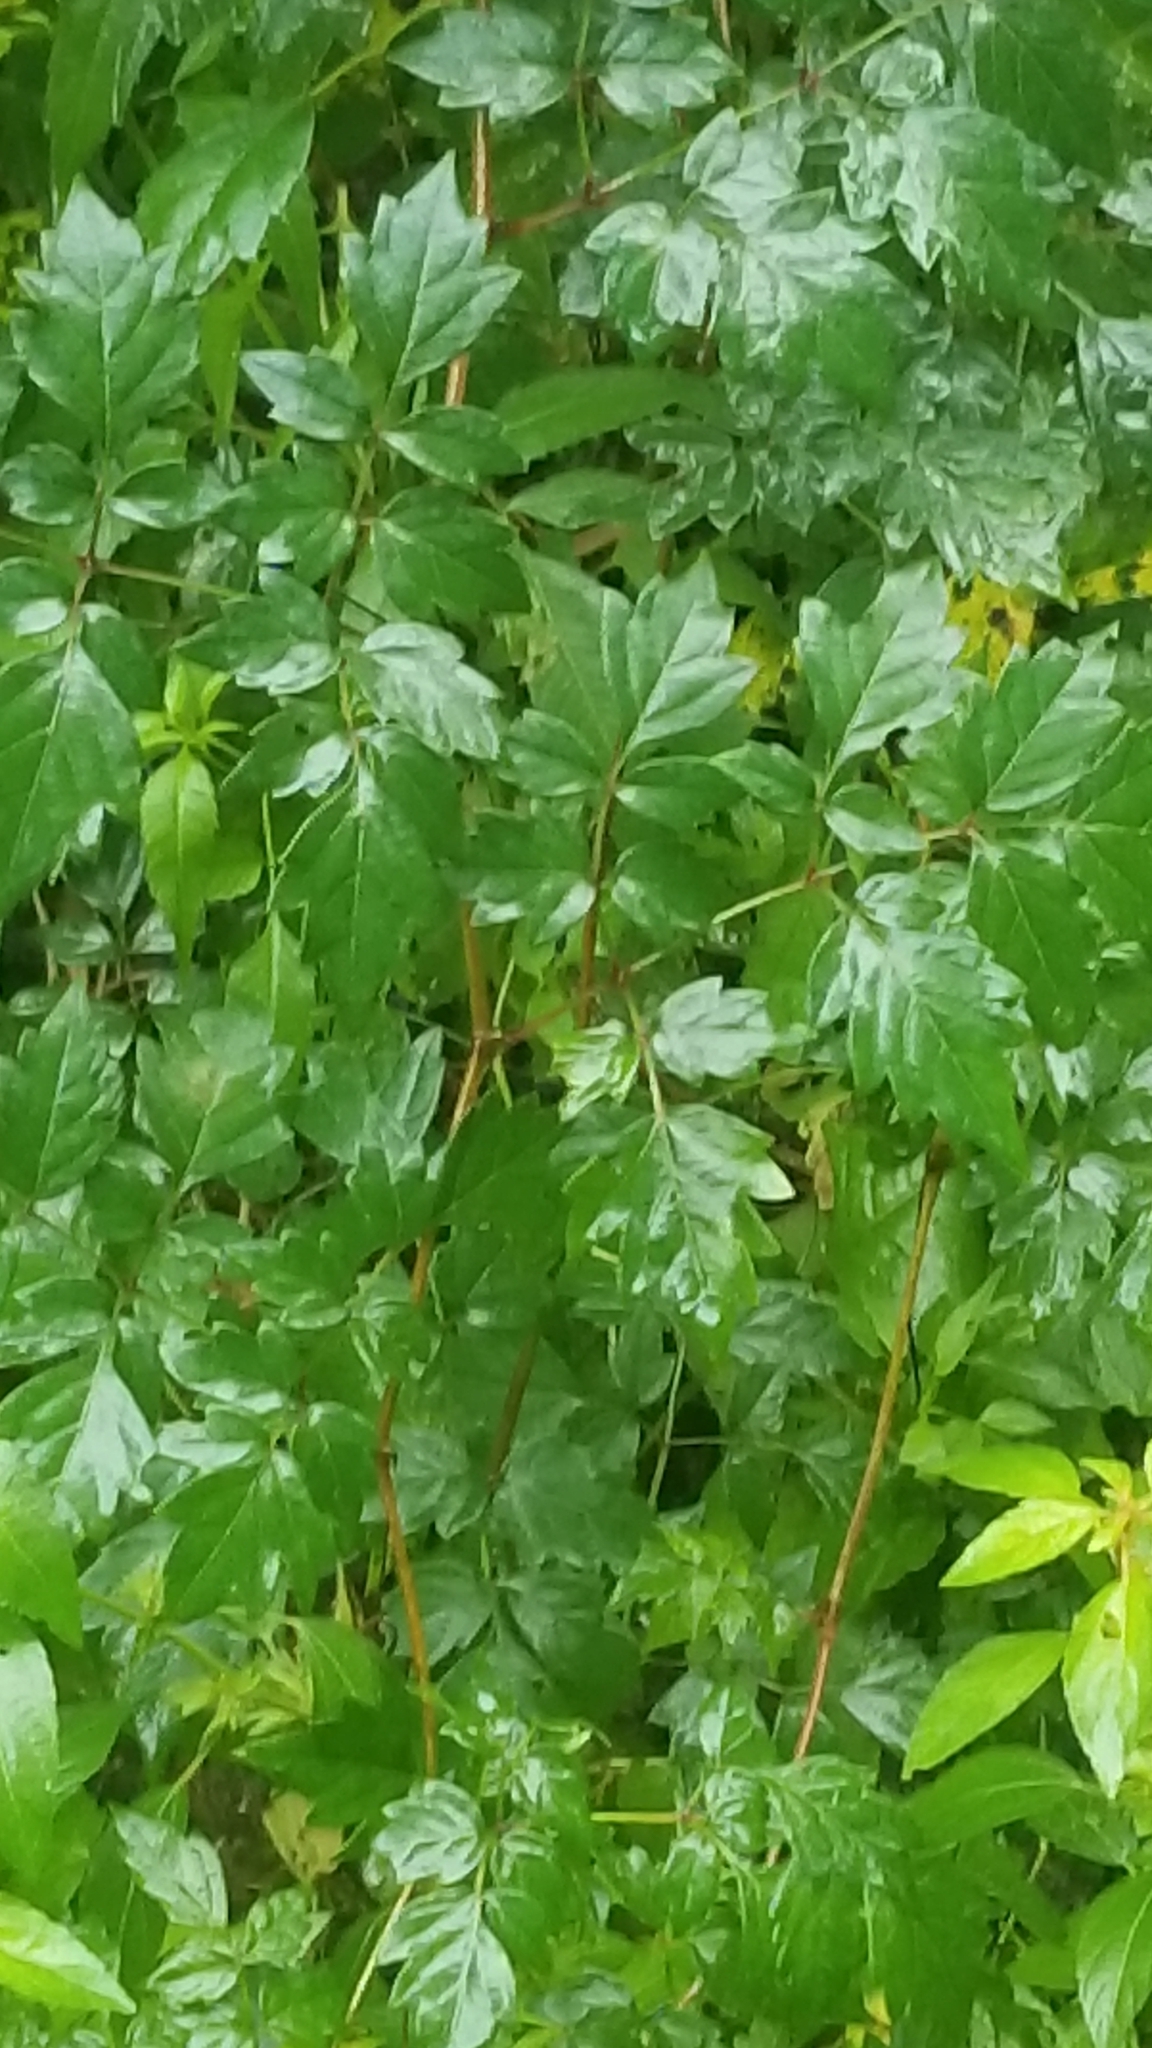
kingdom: Plantae
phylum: Tracheophyta
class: Magnoliopsida
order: Vitales
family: Vitaceae
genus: Nekemias
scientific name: Nekemias arborea
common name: Peppervine
